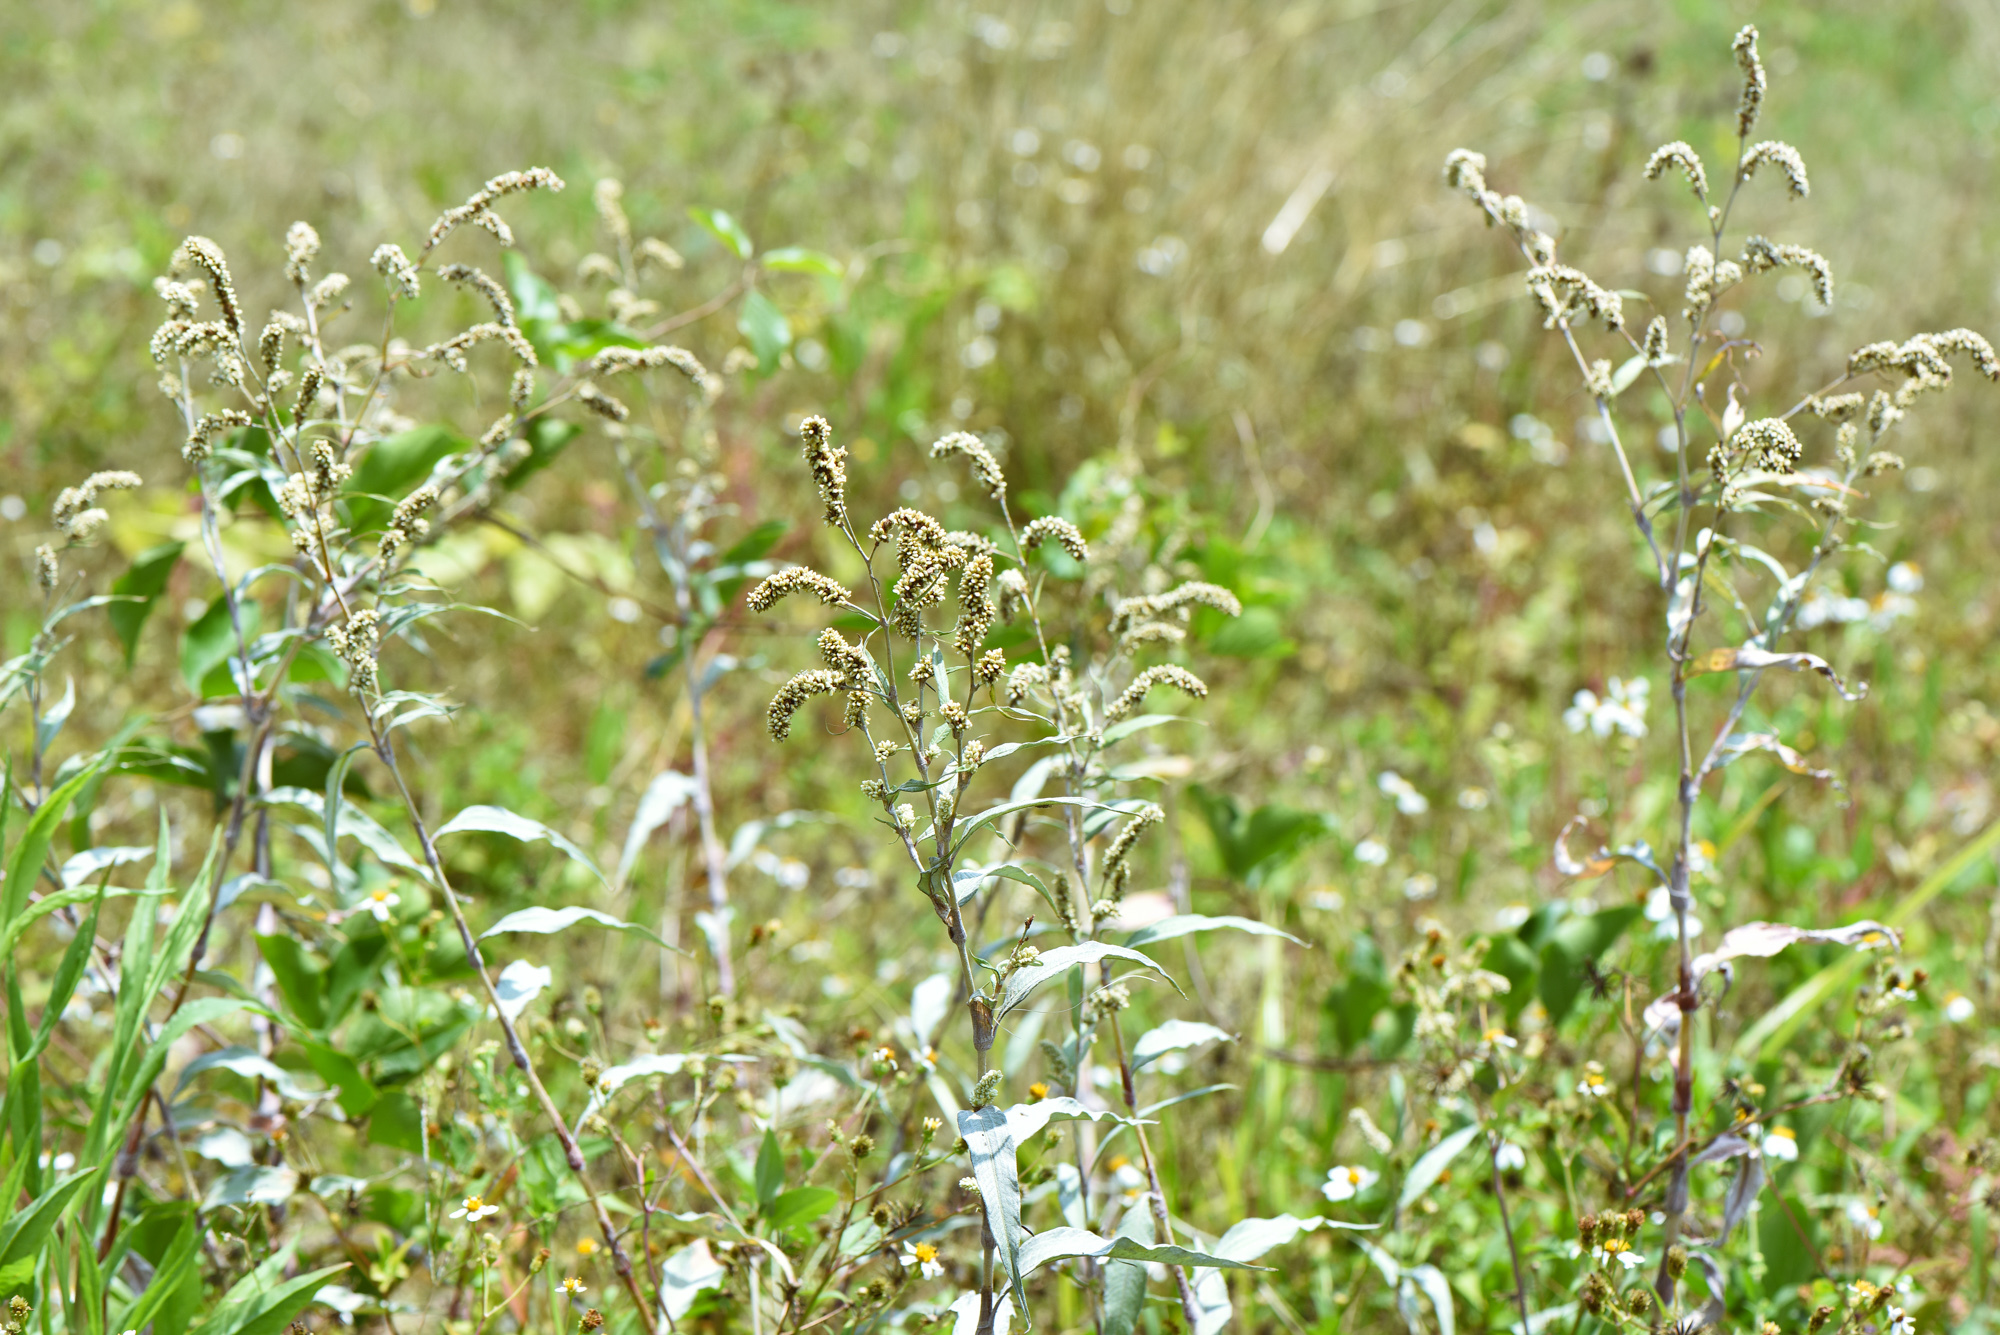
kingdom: Plantae
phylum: Tracheophyta
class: Magnoliopsida
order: Caryophyllales
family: Polygonaceae
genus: Persicaria
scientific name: Persicaria lanata
